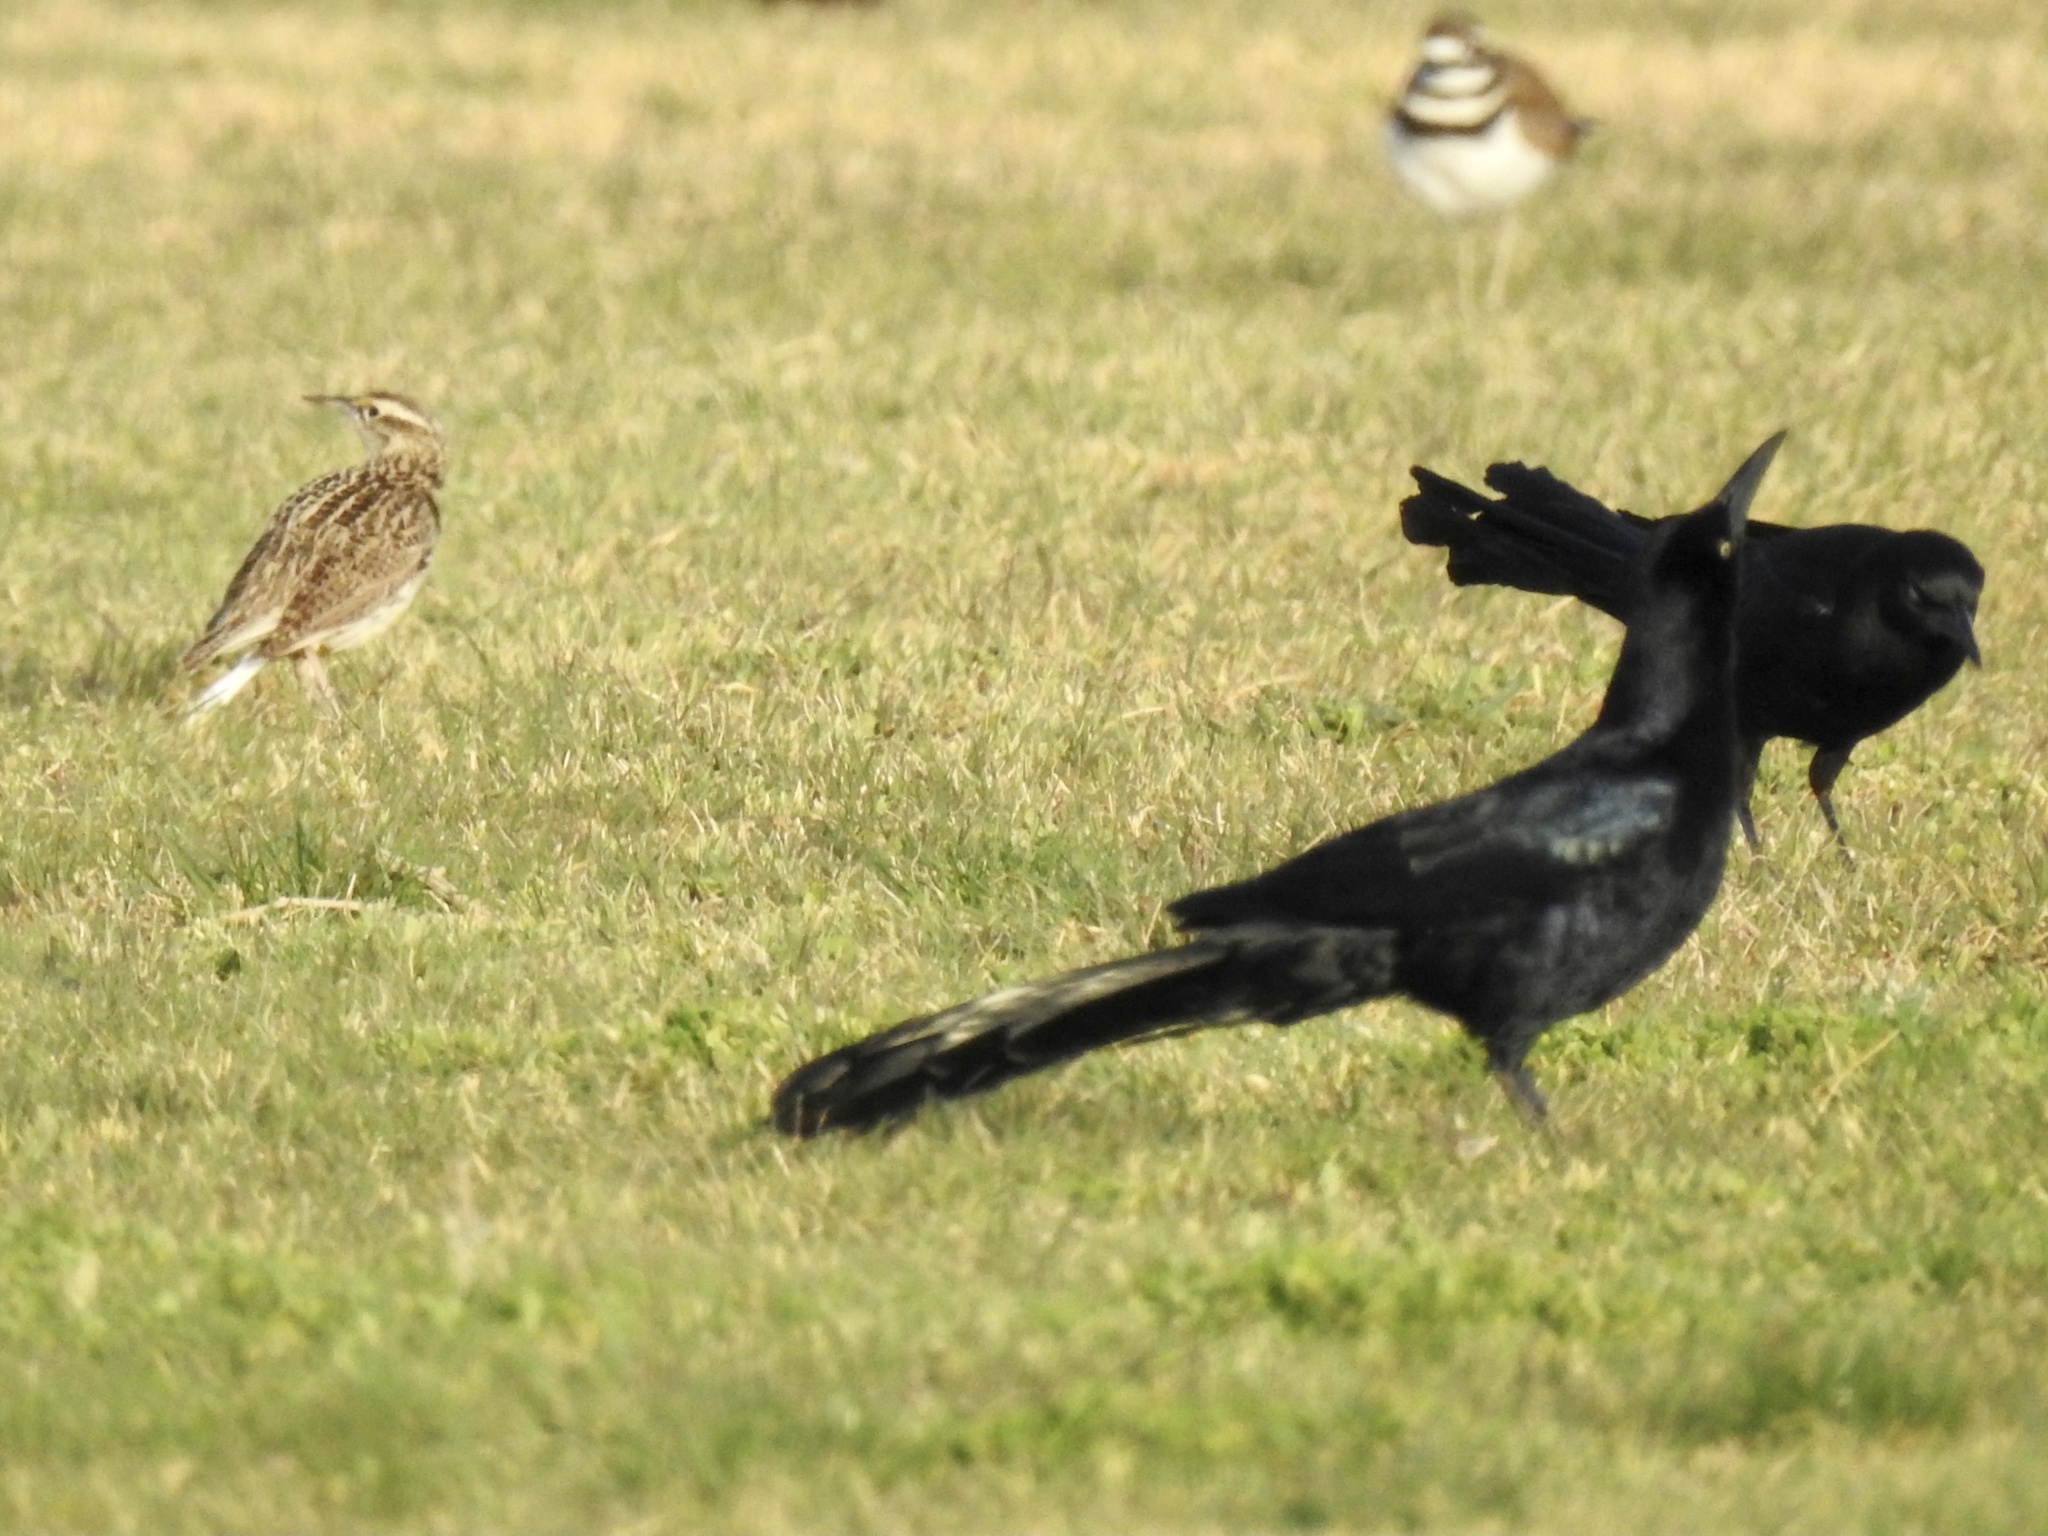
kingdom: Animalia
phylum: Chordata
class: Aves
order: Passeriformes
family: Icteridae
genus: Quiscalus
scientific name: Quiscalus mexicanus
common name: Great-tailed grackle
